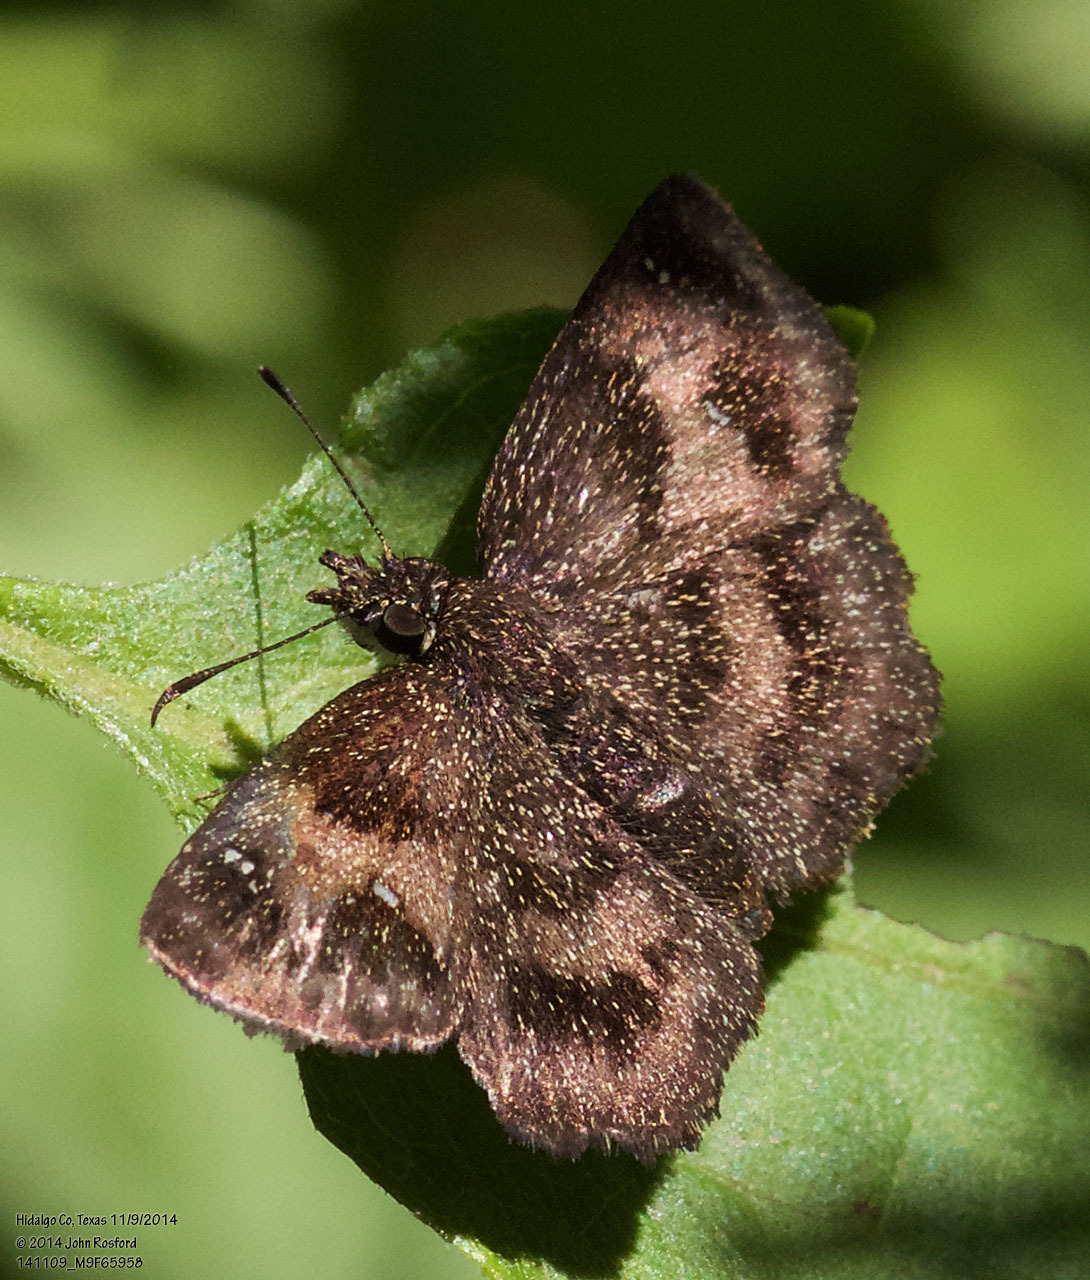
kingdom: Animalia
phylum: Arthropoda
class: Insecta
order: Lepidoptera
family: Hesperiidae
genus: Staphylus
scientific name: Staphylus mazans
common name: Mazans scallopwing
